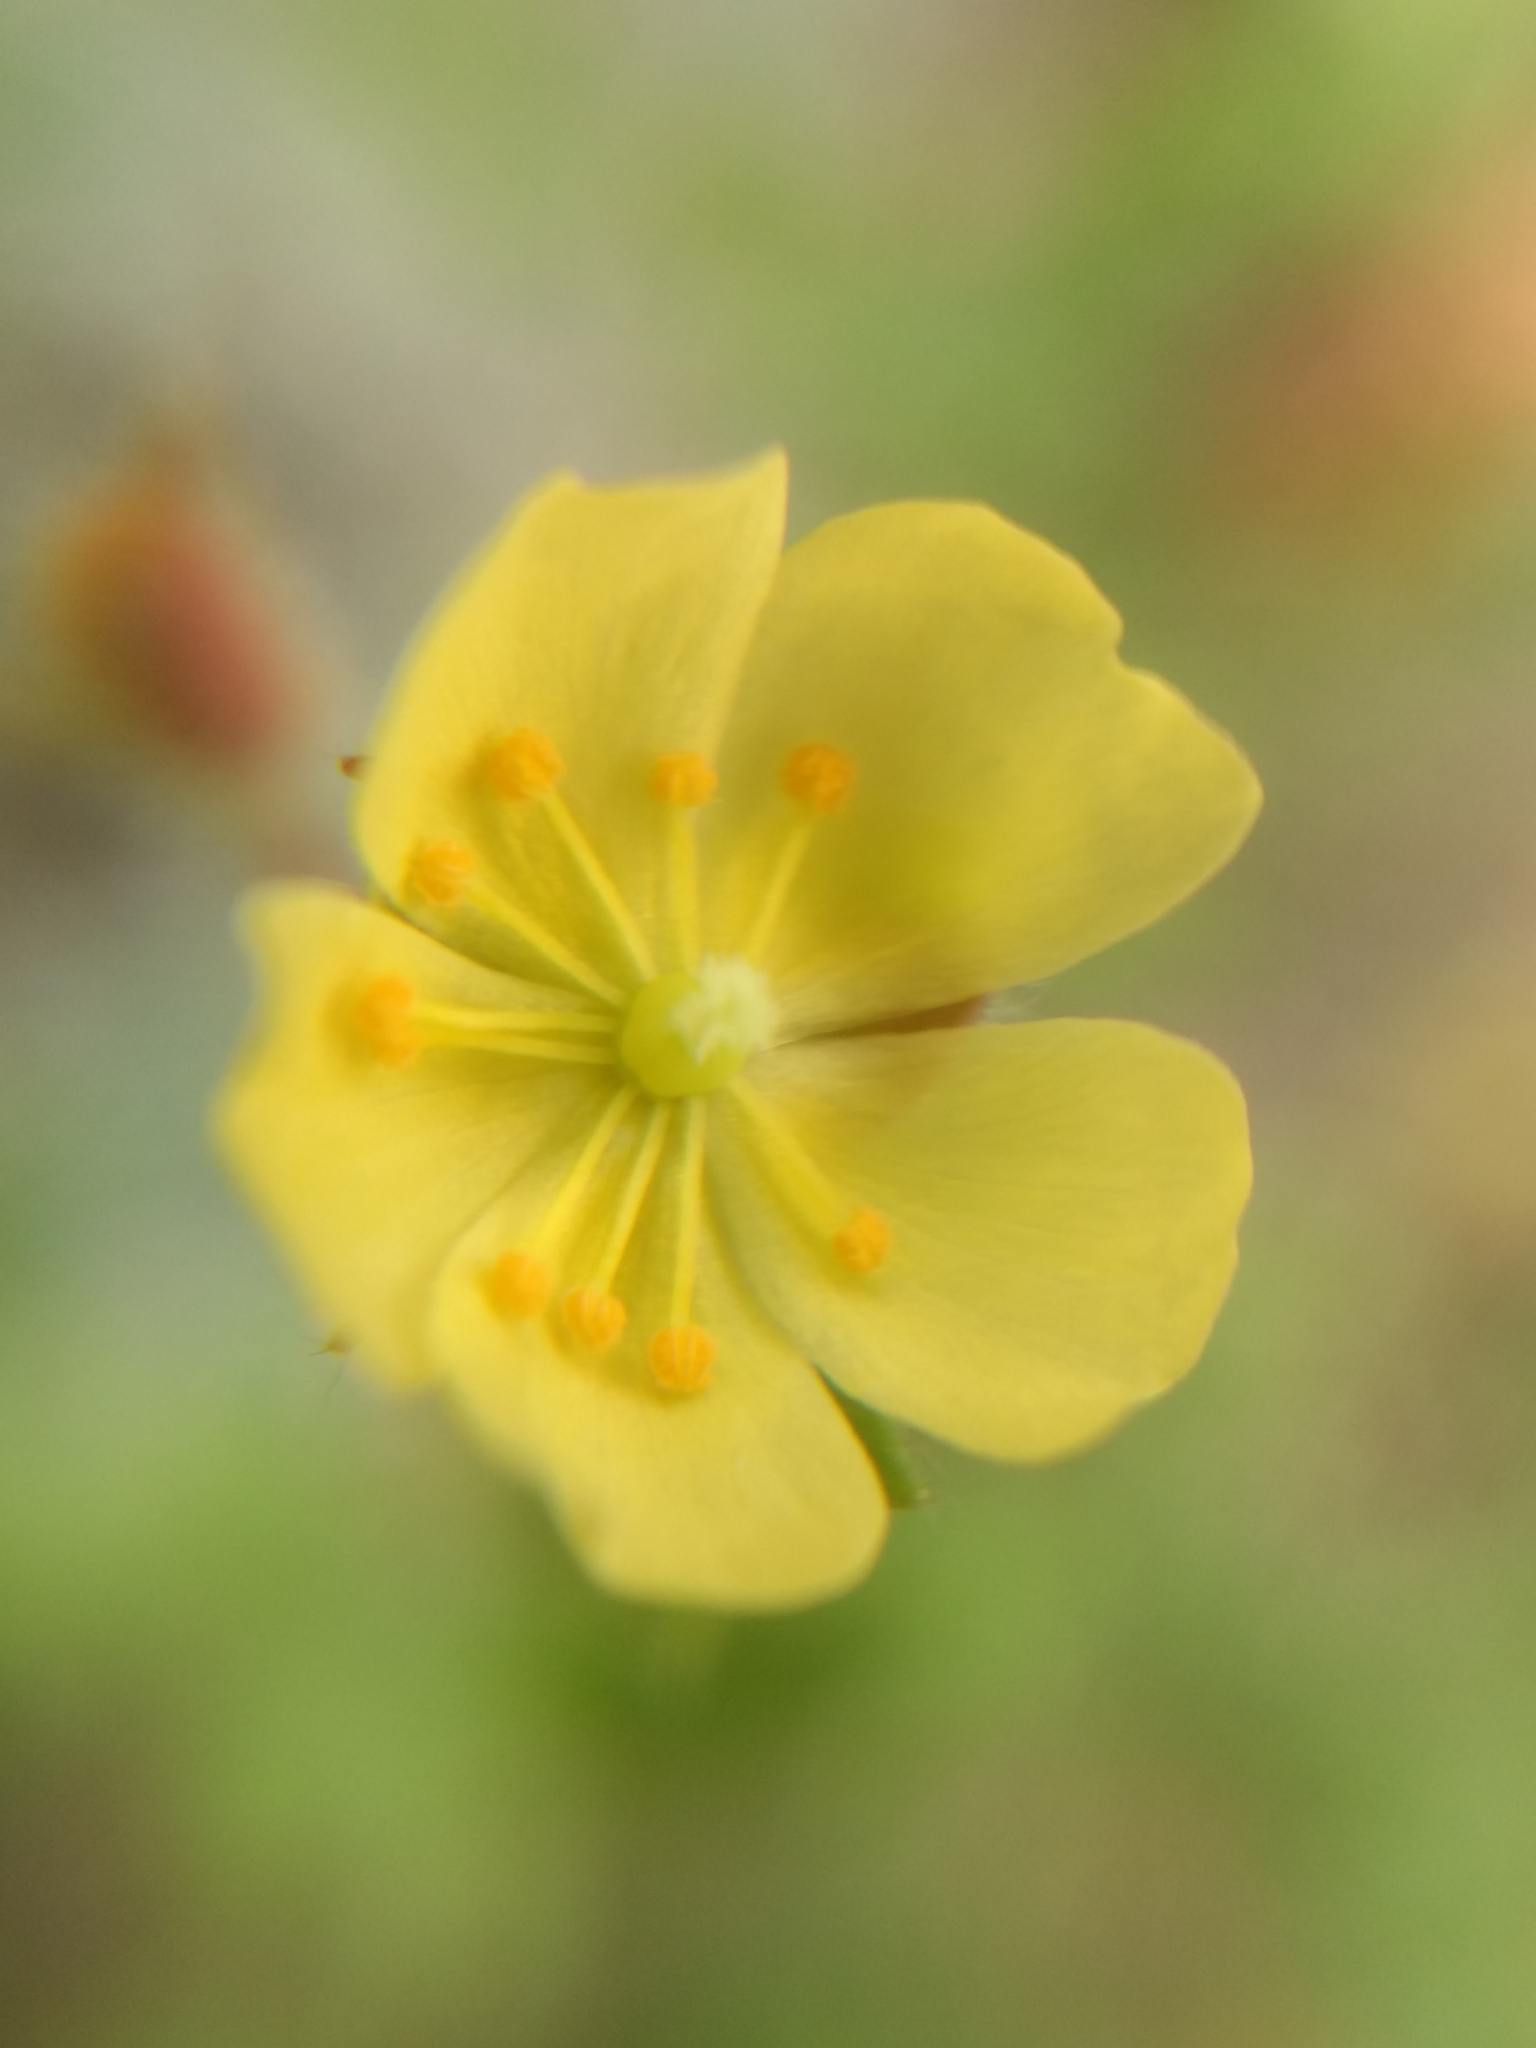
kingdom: Plantae
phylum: Tracheophyta
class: Magnoliopsida
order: Malvales
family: Cistaceae
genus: Crocanthemum
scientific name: Crocanthemum patens
